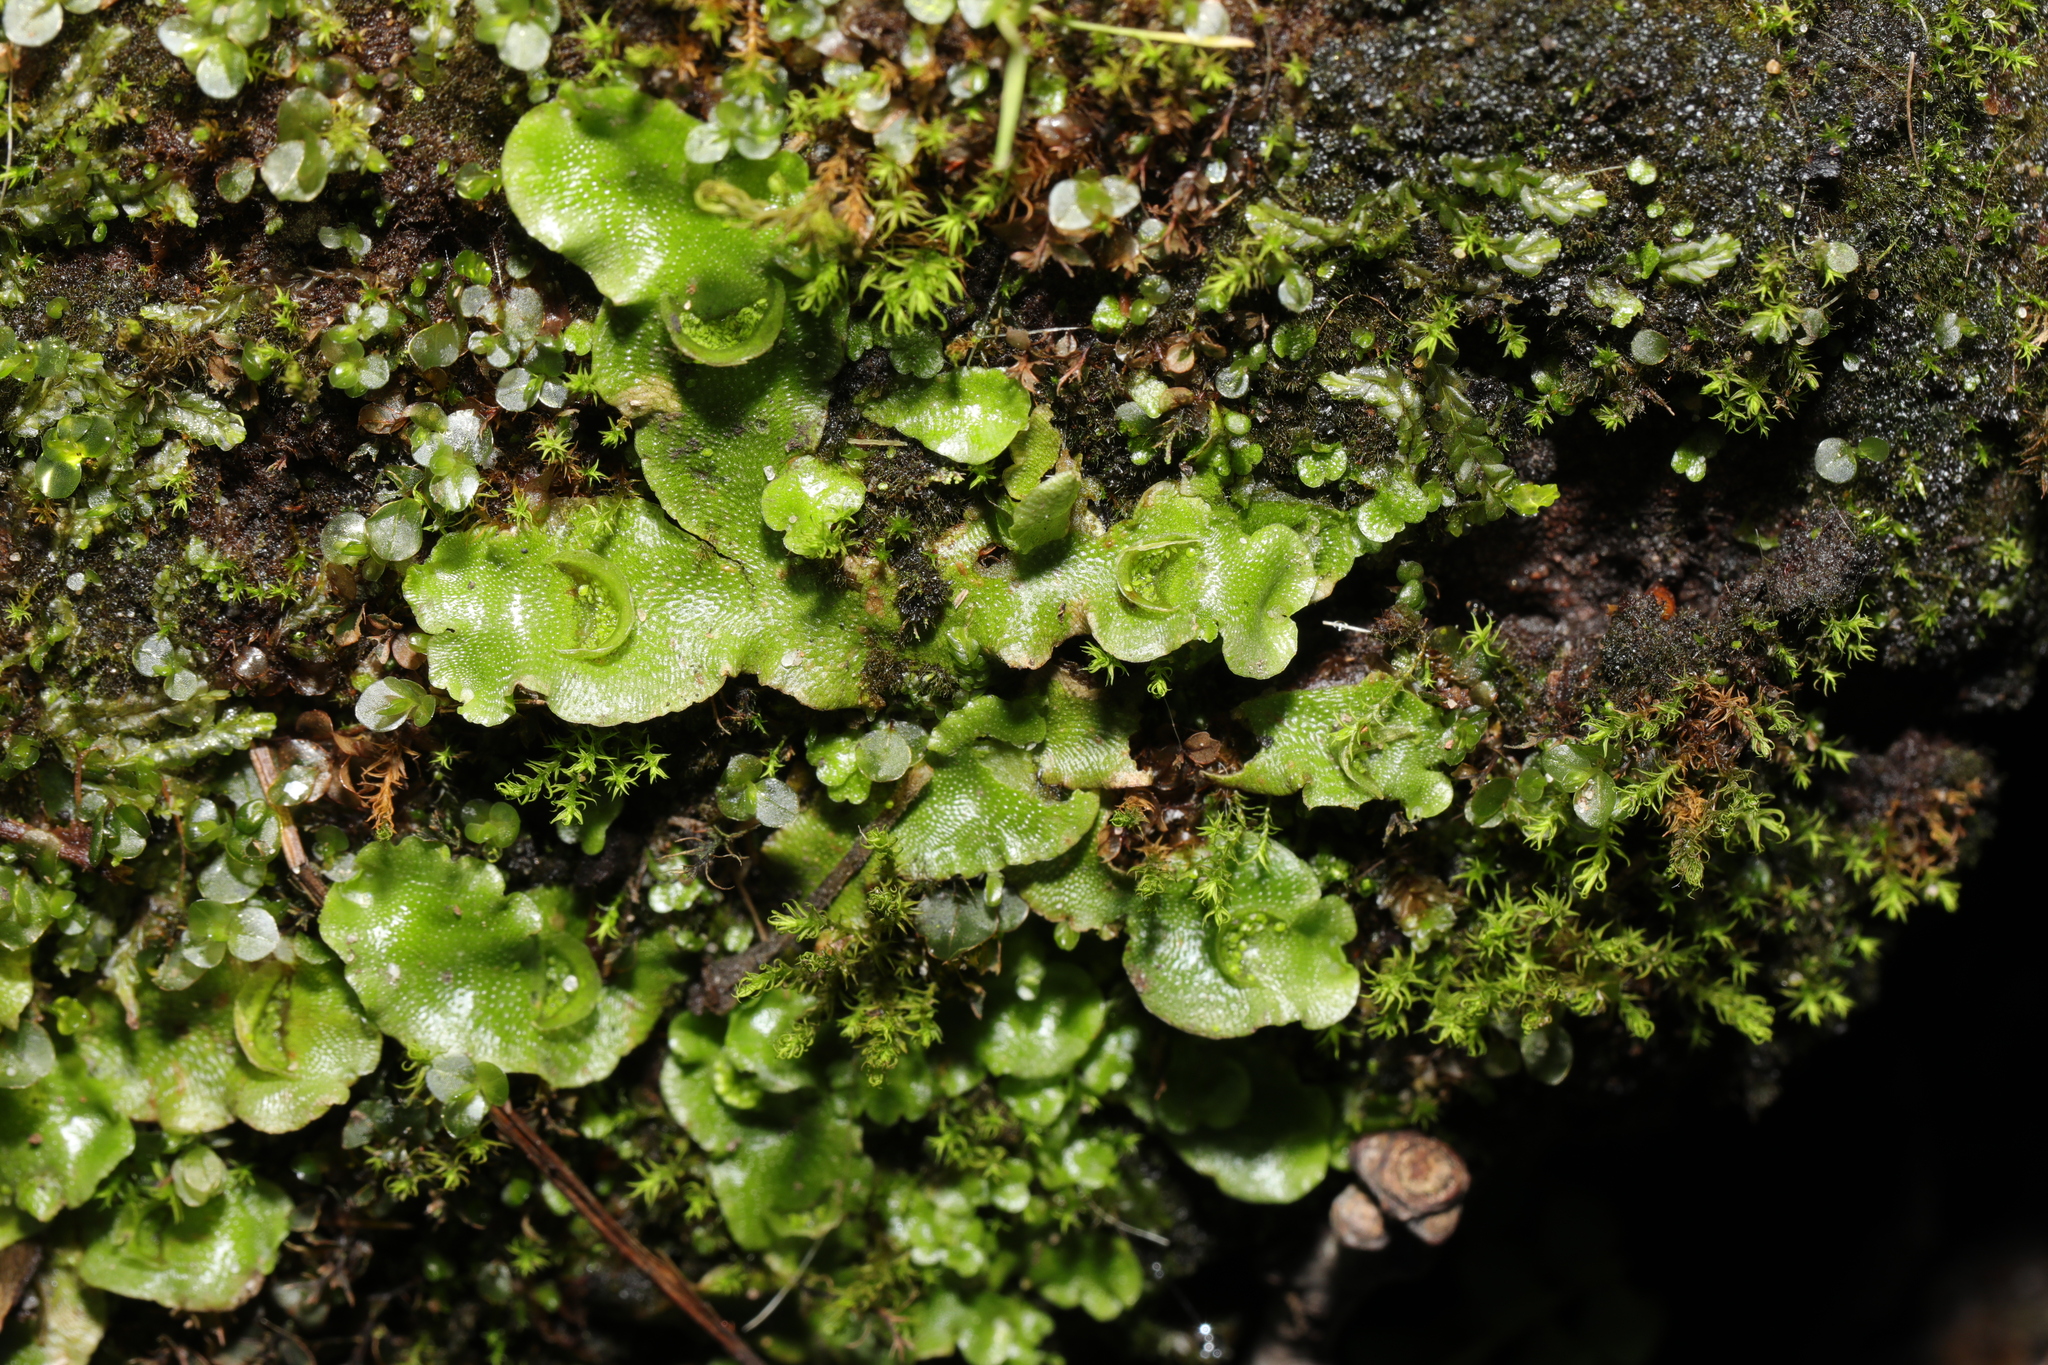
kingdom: Plantae
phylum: Marchantiophyta
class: Marchantiopsida
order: Lunulariales
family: Lunulariaceae
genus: Lunularia
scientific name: Lunularia cruciata
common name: Crescent-cup liverwort
